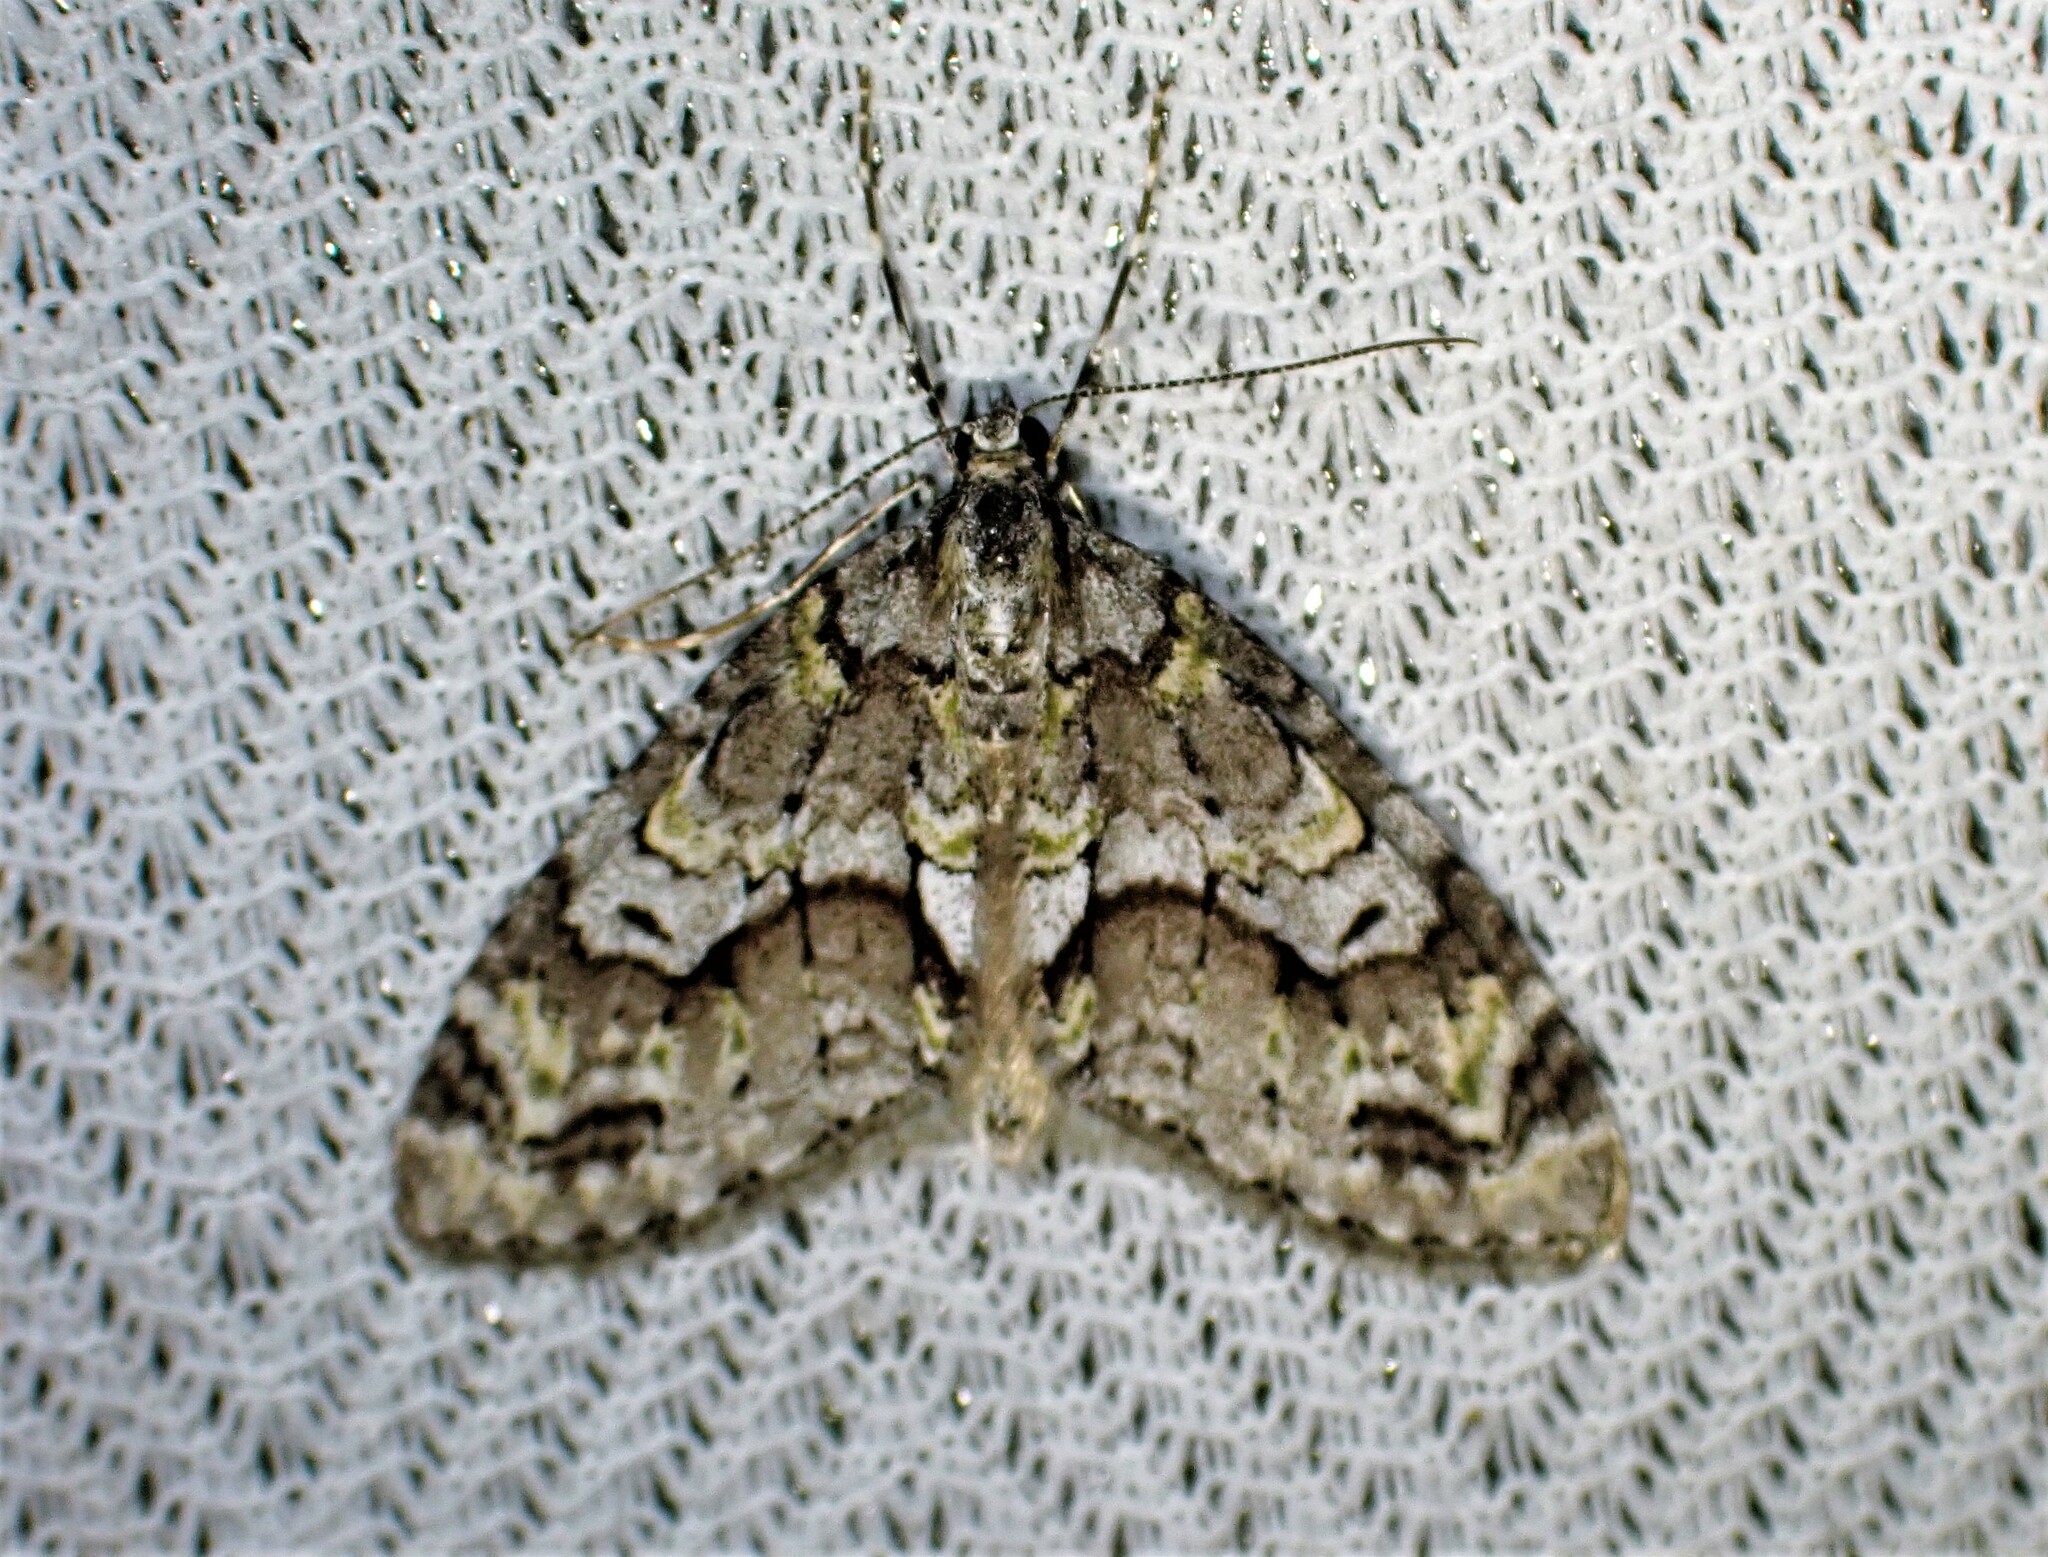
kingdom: Animalia
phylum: Arthropoda
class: Insecta
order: Lepidoptera
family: Geometridae
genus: Cladara
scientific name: Cladara limitaria
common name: Mottled gray carpet
